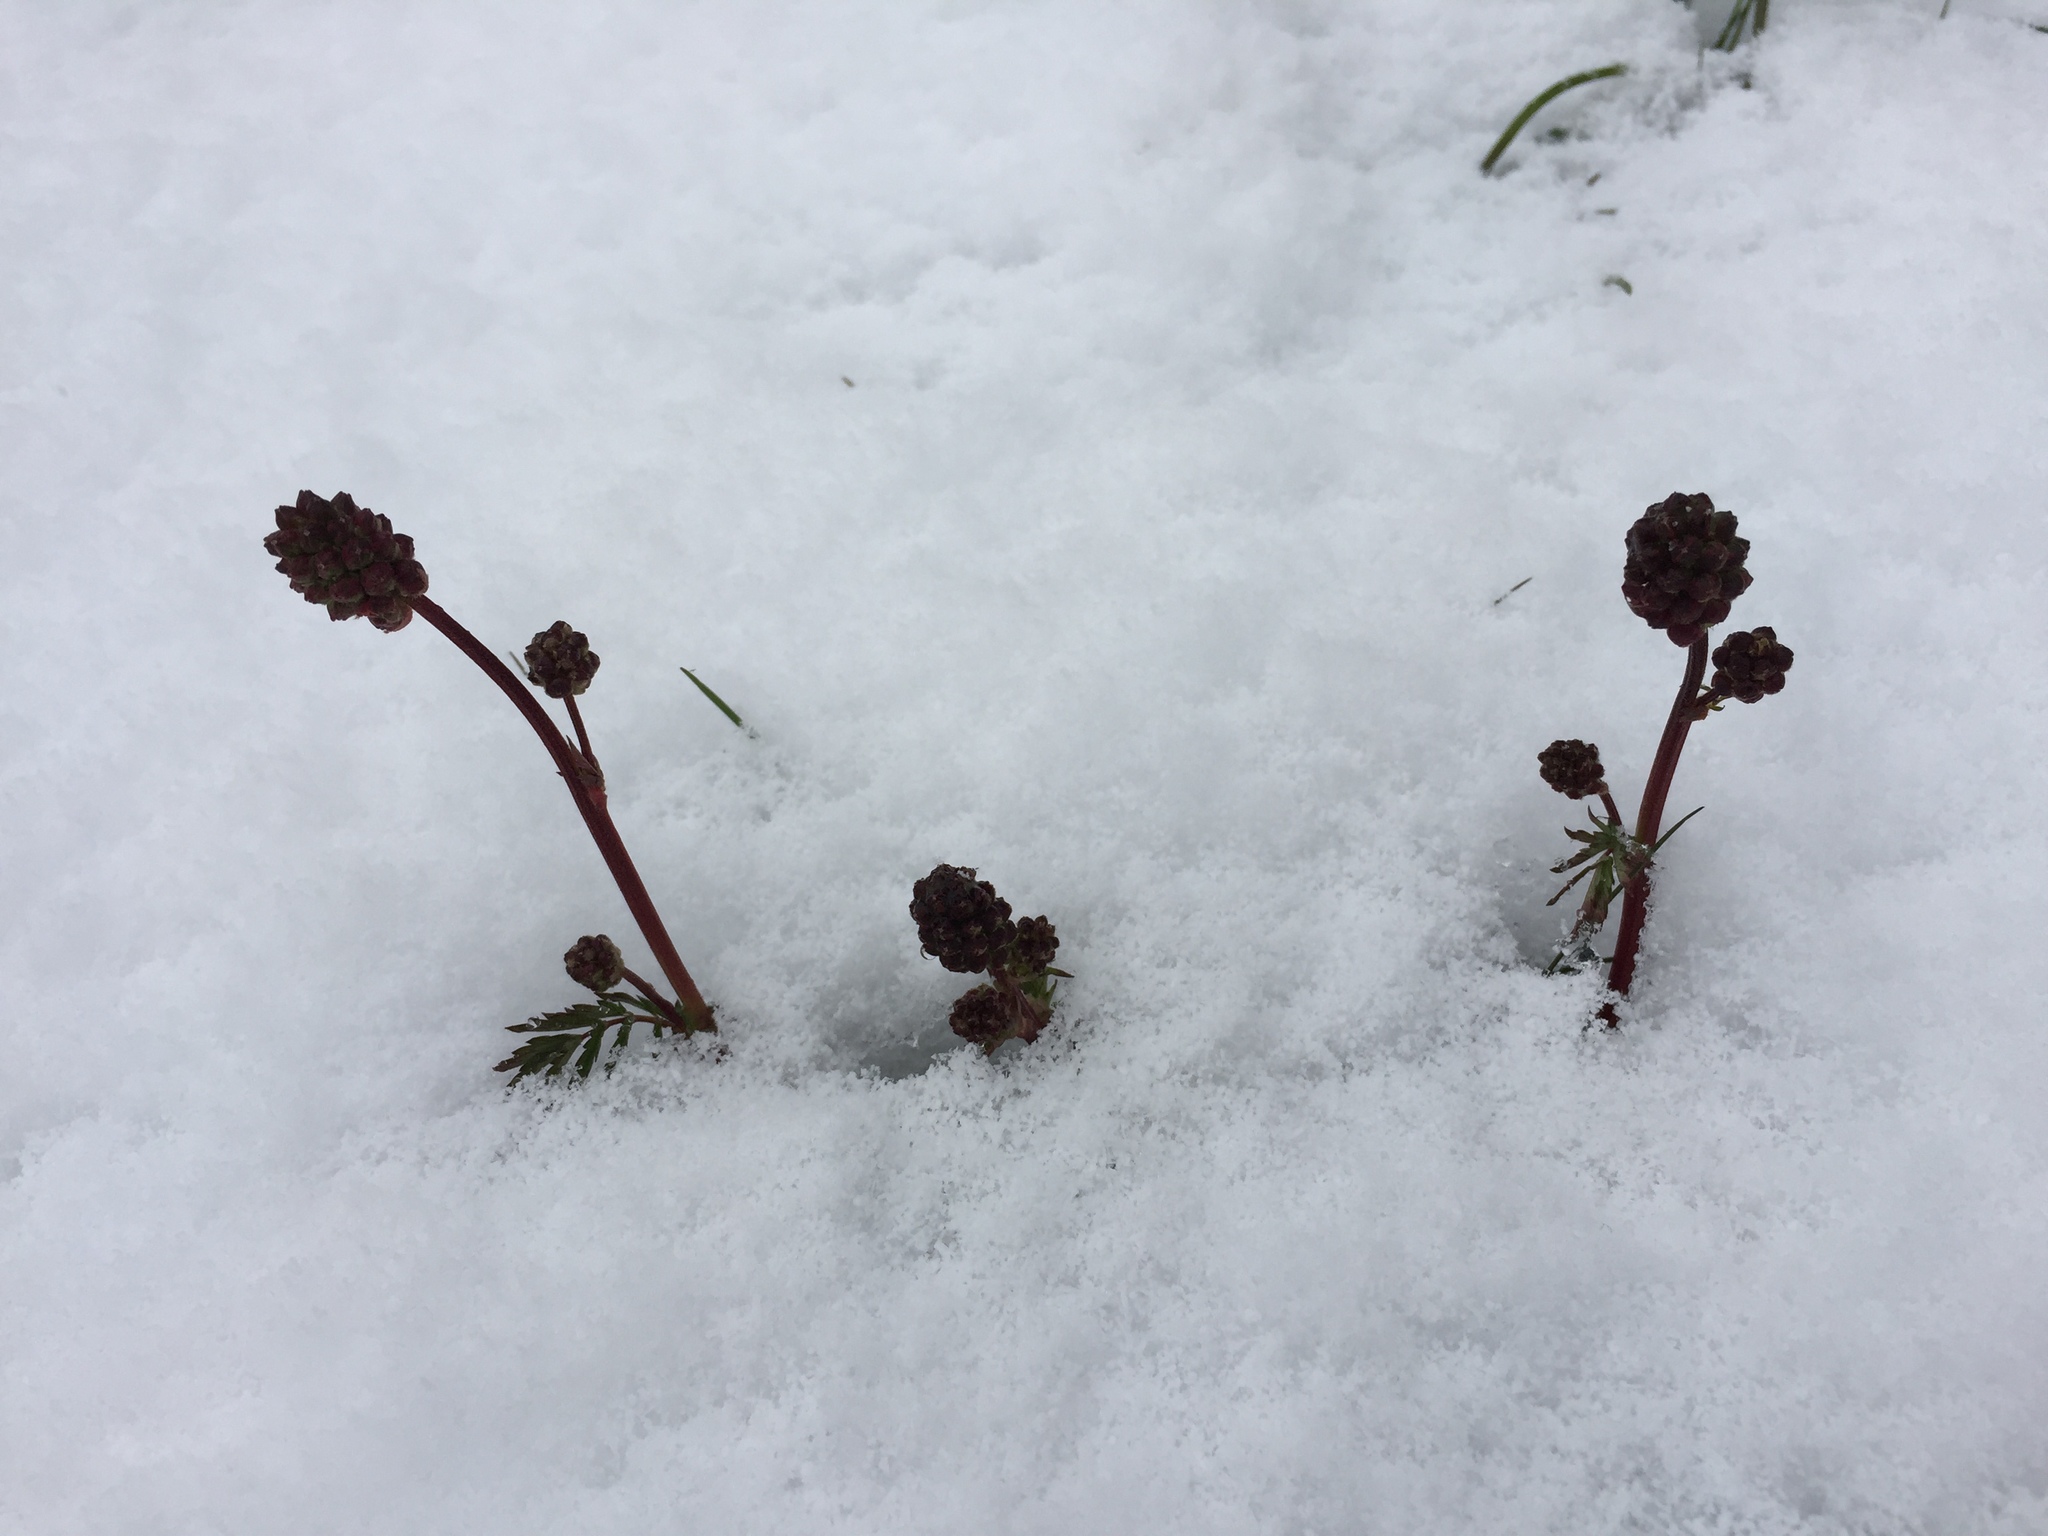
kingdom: Plantae
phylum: Tracheophyta
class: Magnoliopsida
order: Rosales
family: Rosaceae
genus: Poterium
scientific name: Poterium sanguisorba
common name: Salad burnet
